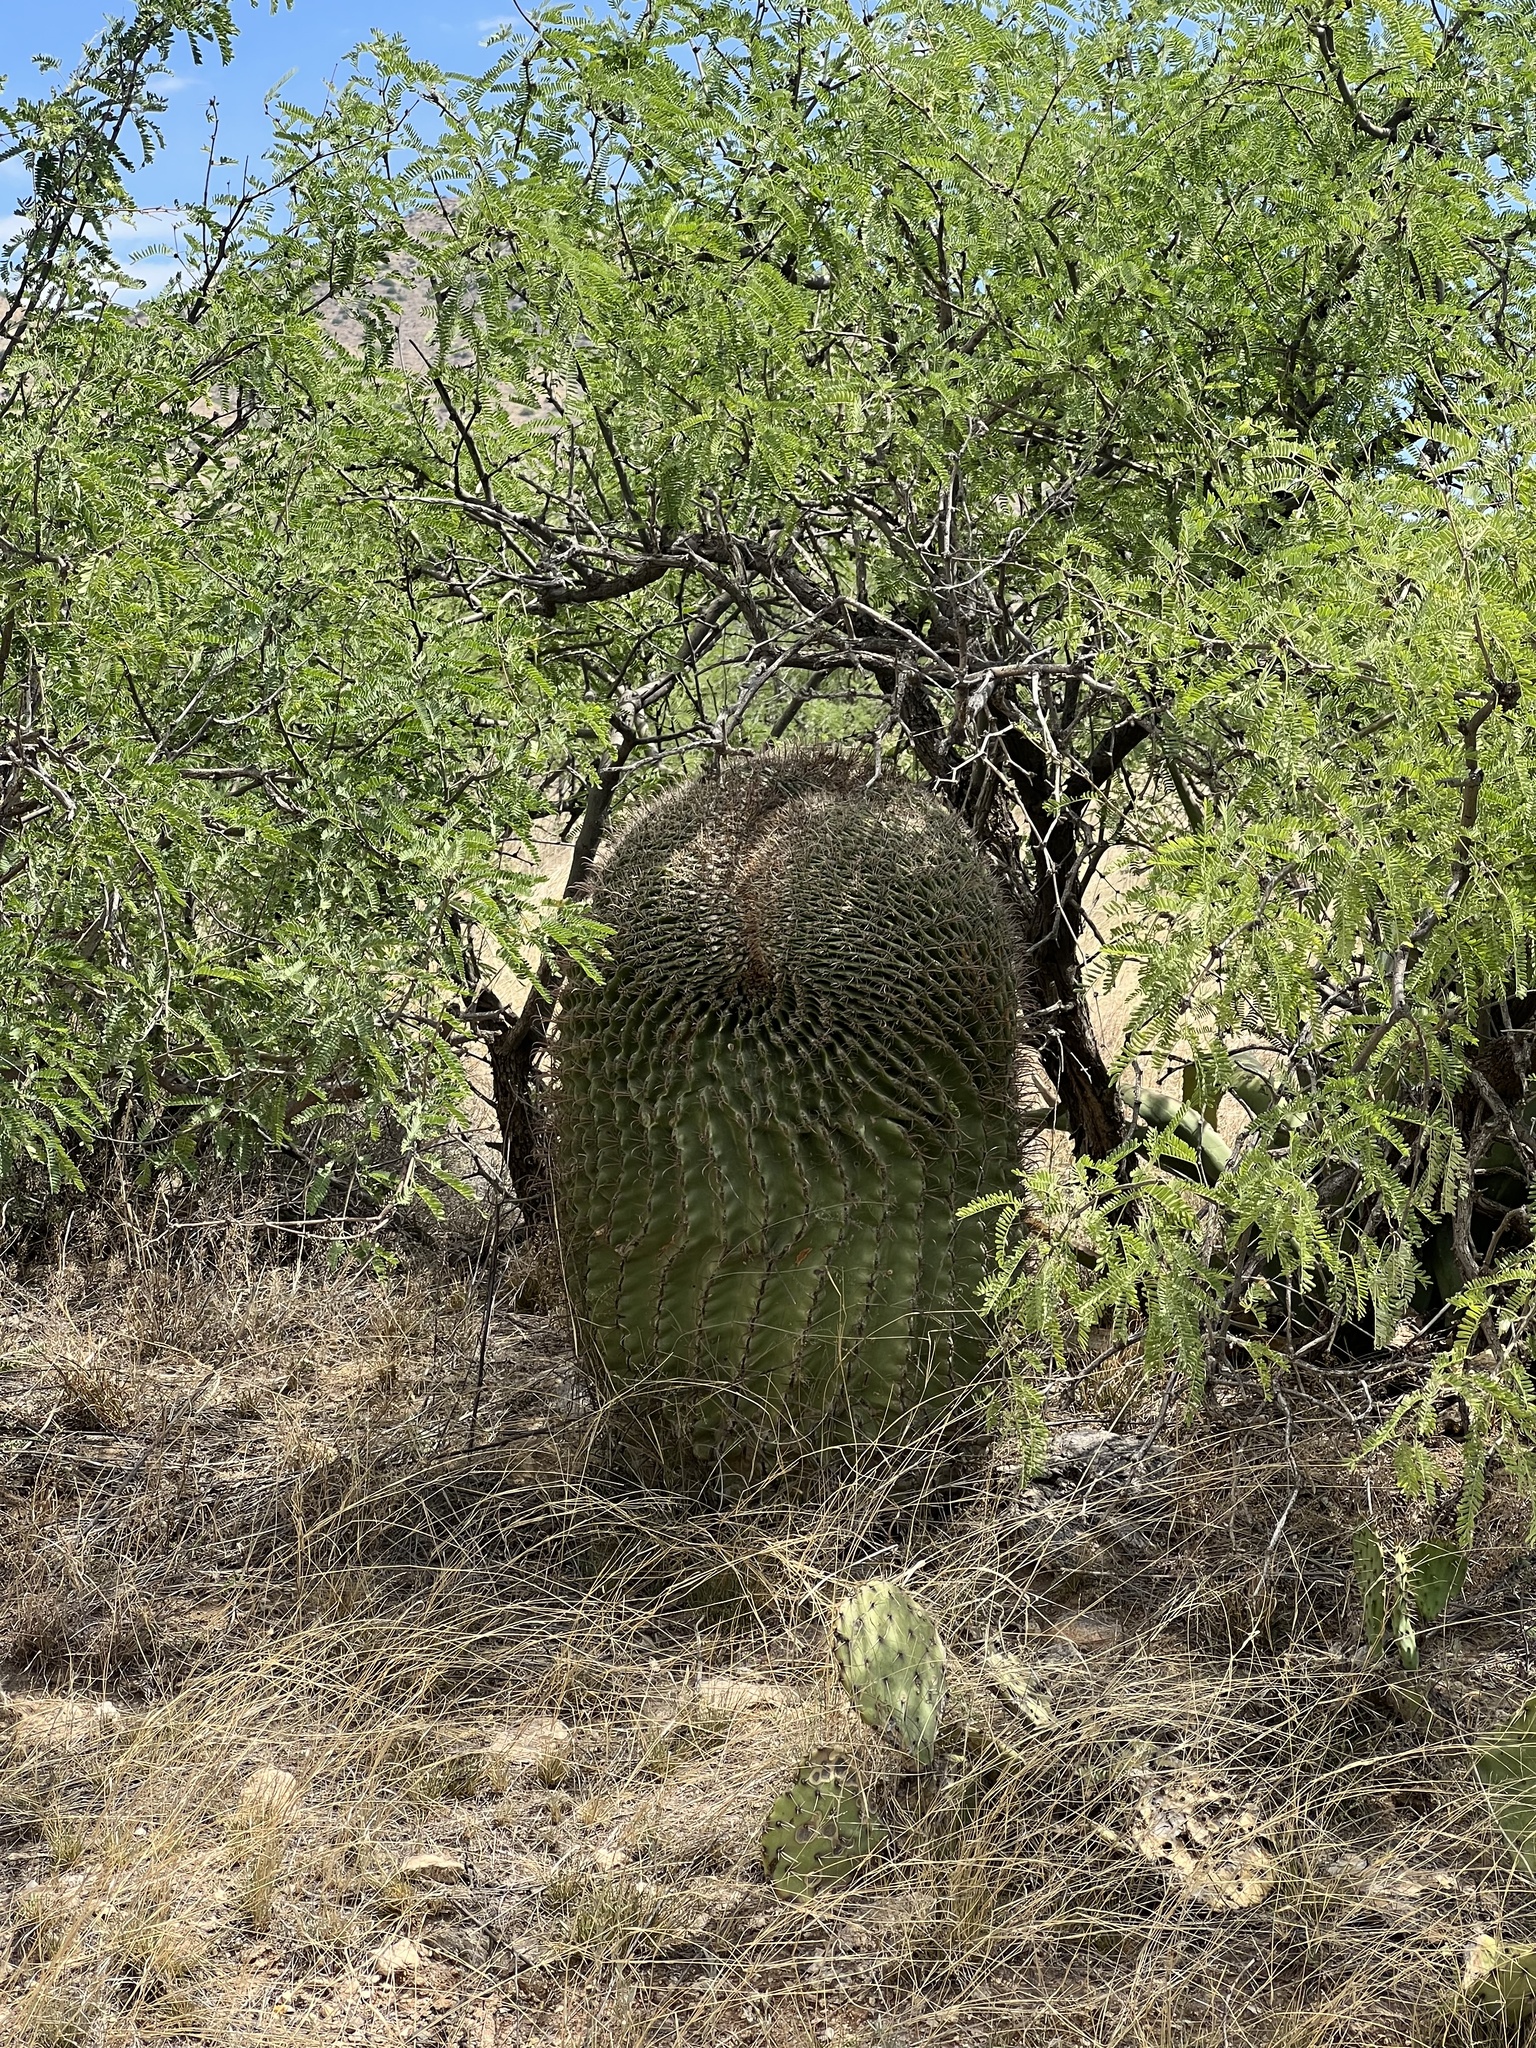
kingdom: Plantae
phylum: Tracheophyta
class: Magnoliopsida
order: Caryophyllales
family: Cactaceae
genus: Ferocactus
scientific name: Ferocactus wislizeni
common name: Candy barrel cactus
